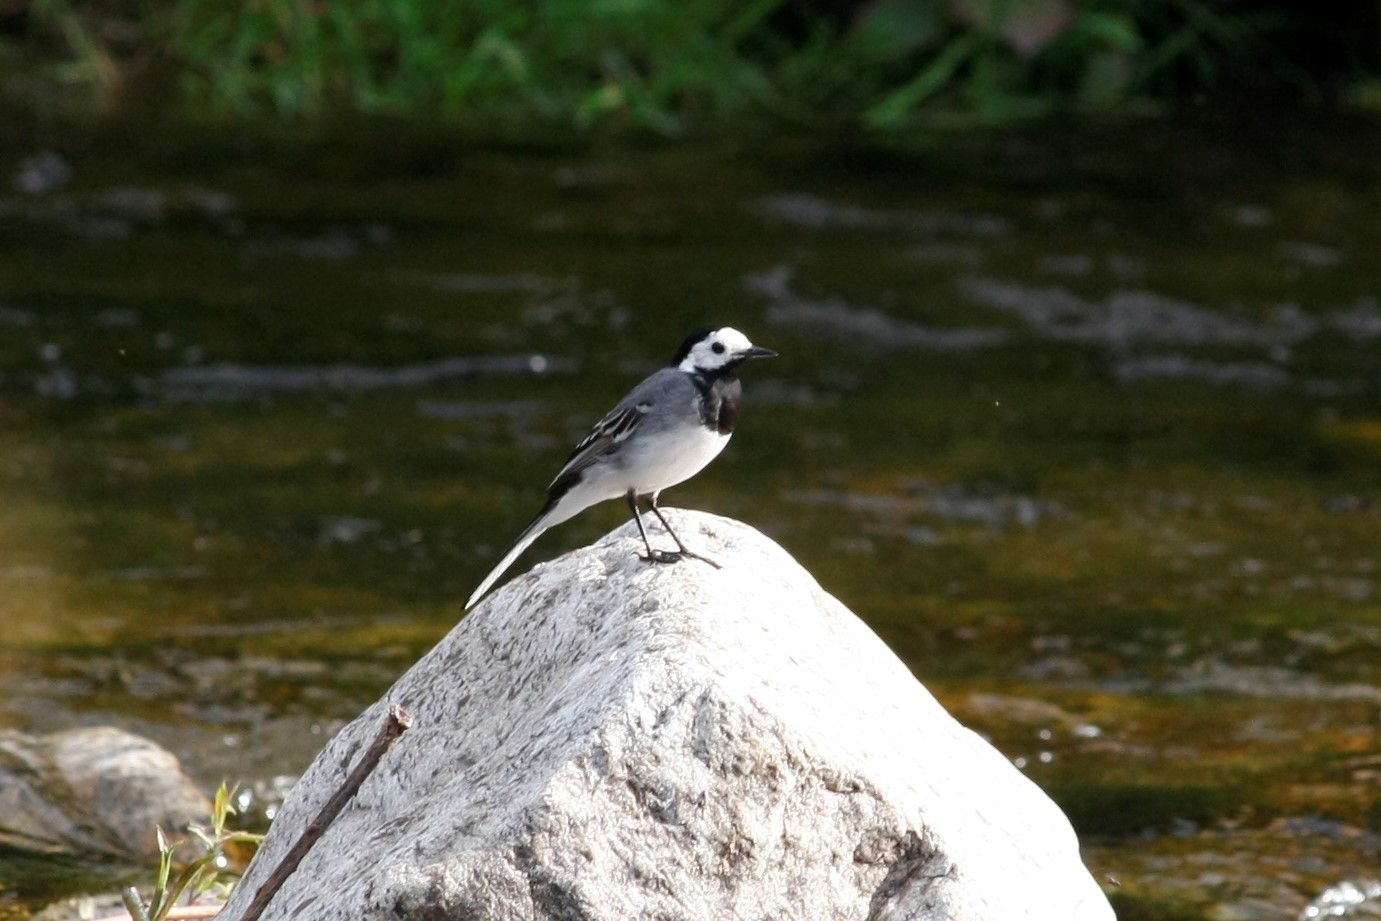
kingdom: Animalia
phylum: Chordata
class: Aves
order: Passeriformes
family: Motacillidae
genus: Motacilla
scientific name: Motacilla alba
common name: White wagtail
